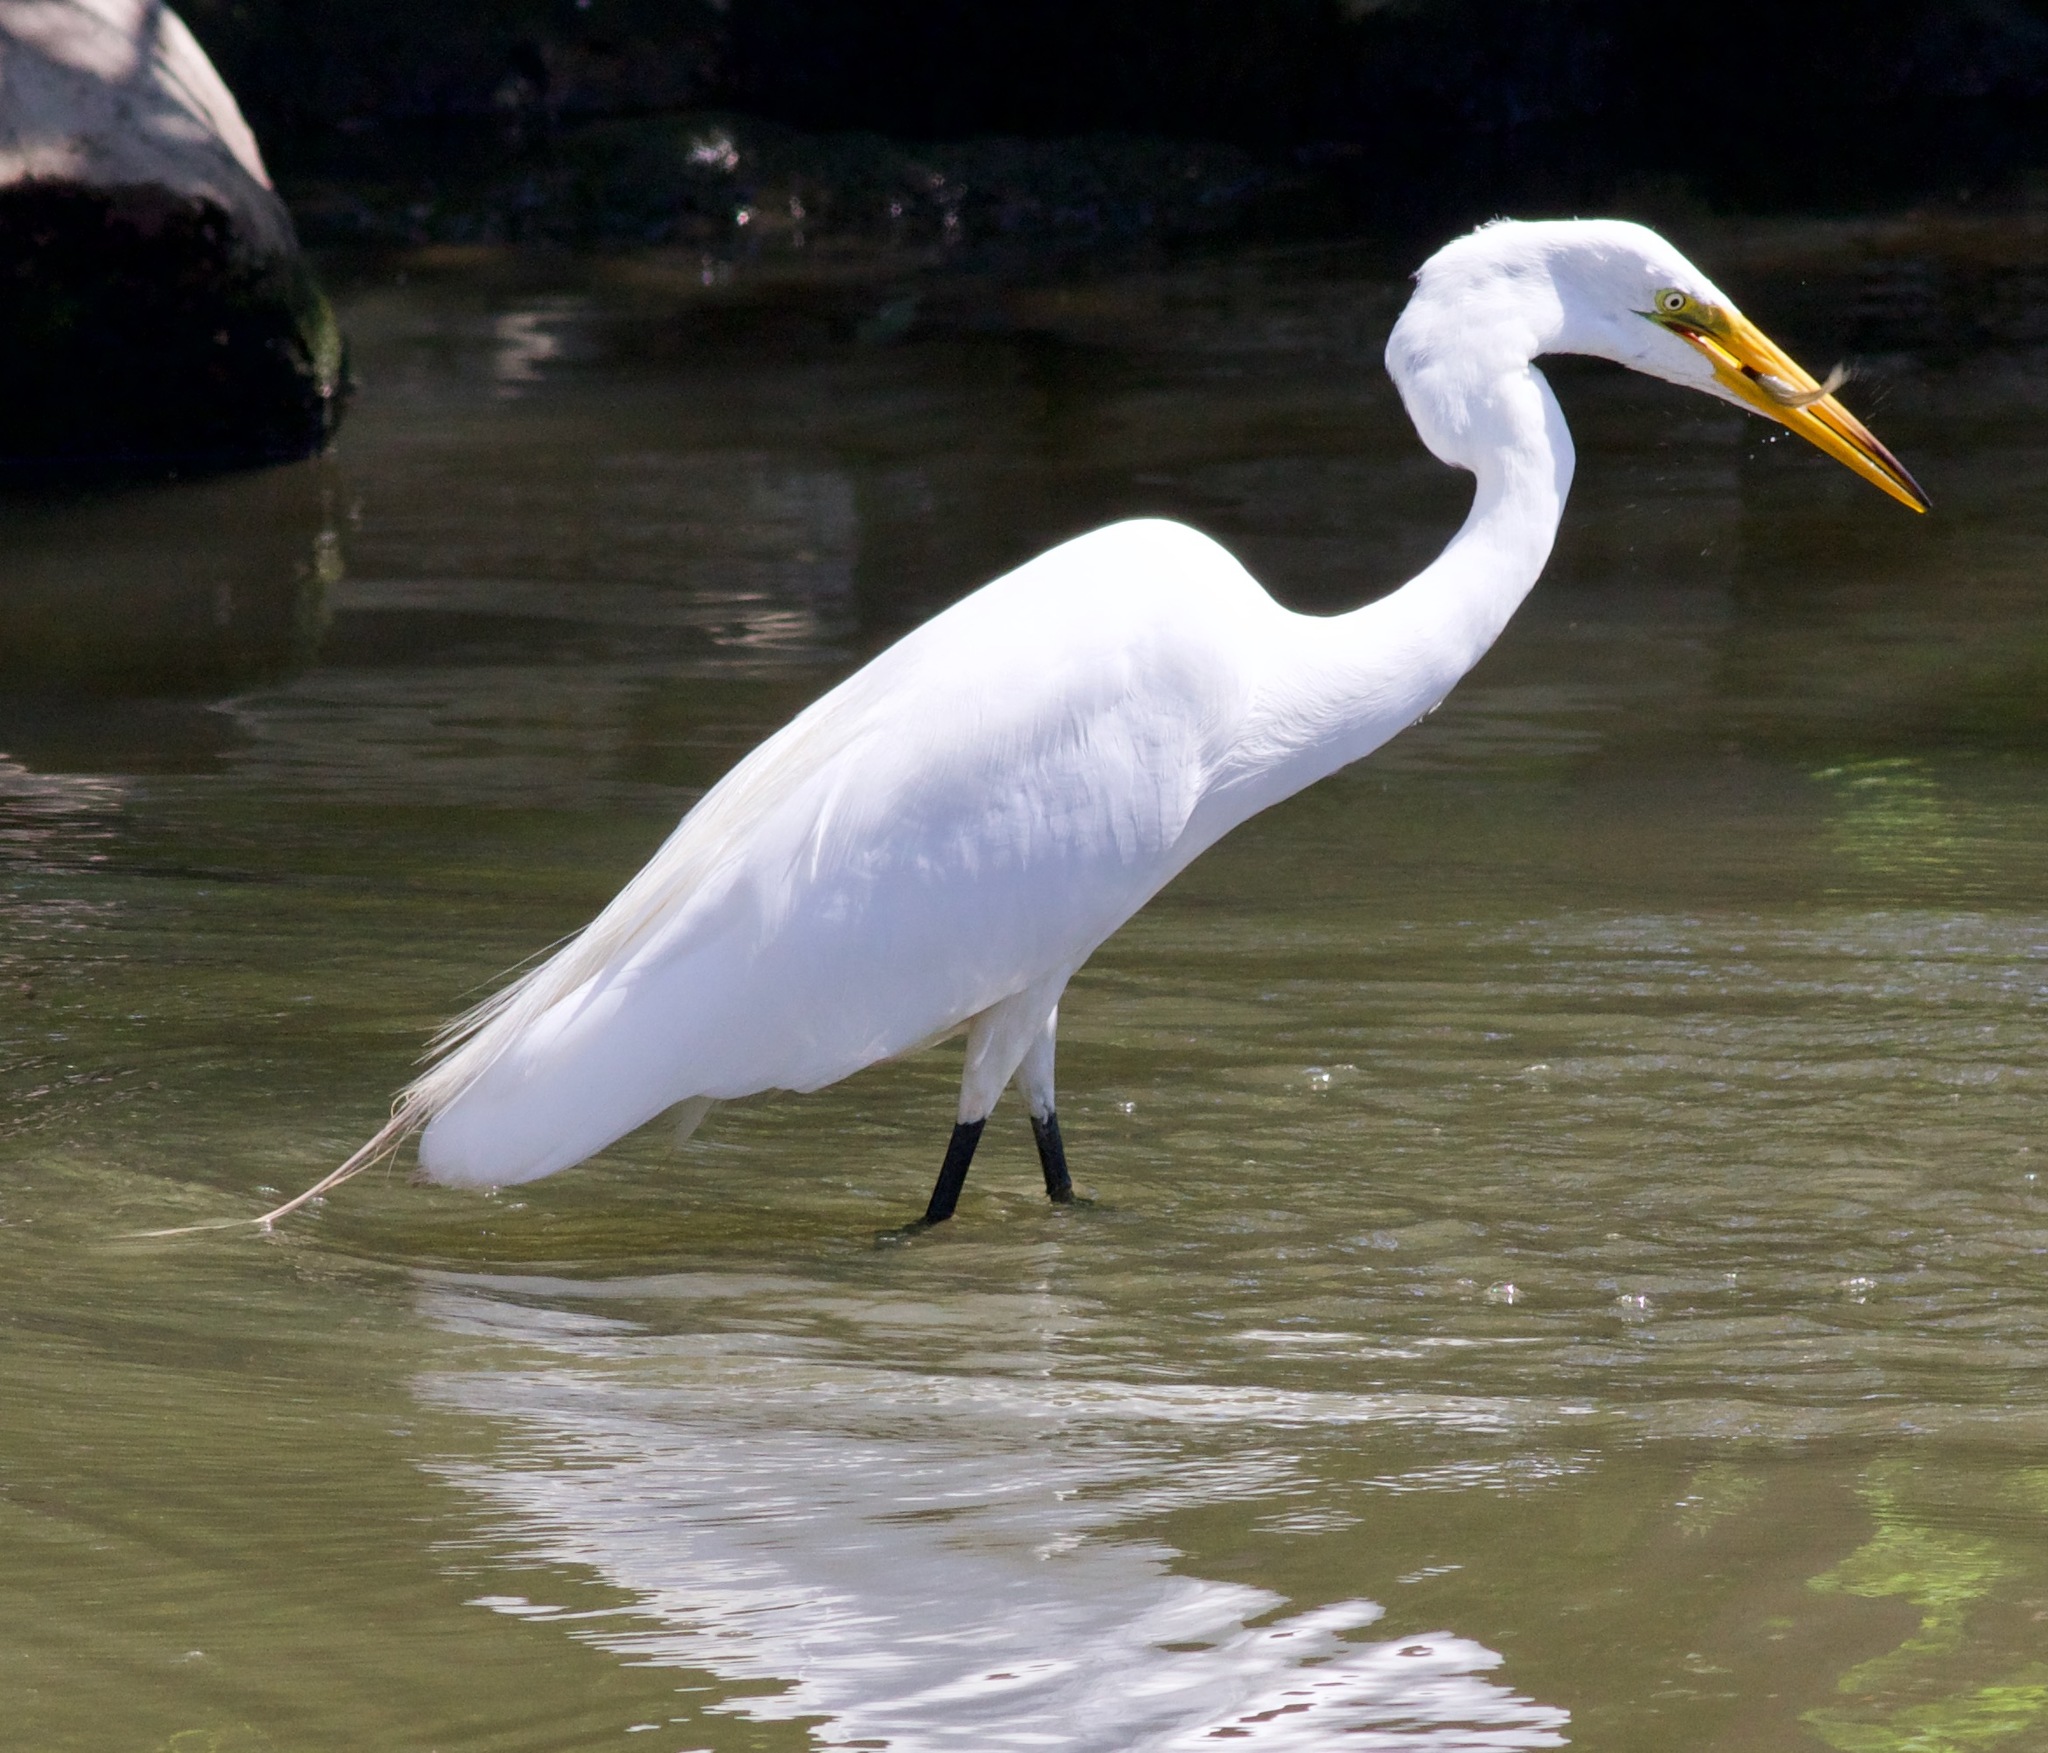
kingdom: Animalia
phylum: Chordata
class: Aves
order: Pelecaniformes
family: Ardeidae
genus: Ardea
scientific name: Ardea alba
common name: Great egret
